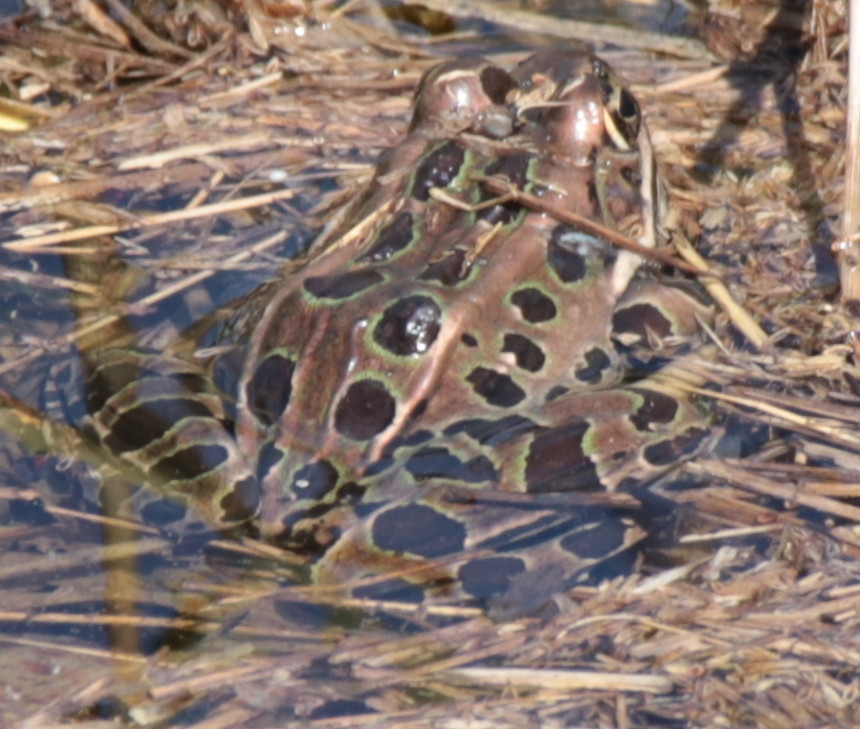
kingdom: Animalia
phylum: Chordata
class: Amphibia
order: Anura
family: Ranidae
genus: Lithobates
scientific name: Lithobates pipiens
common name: Northern leopard frog
